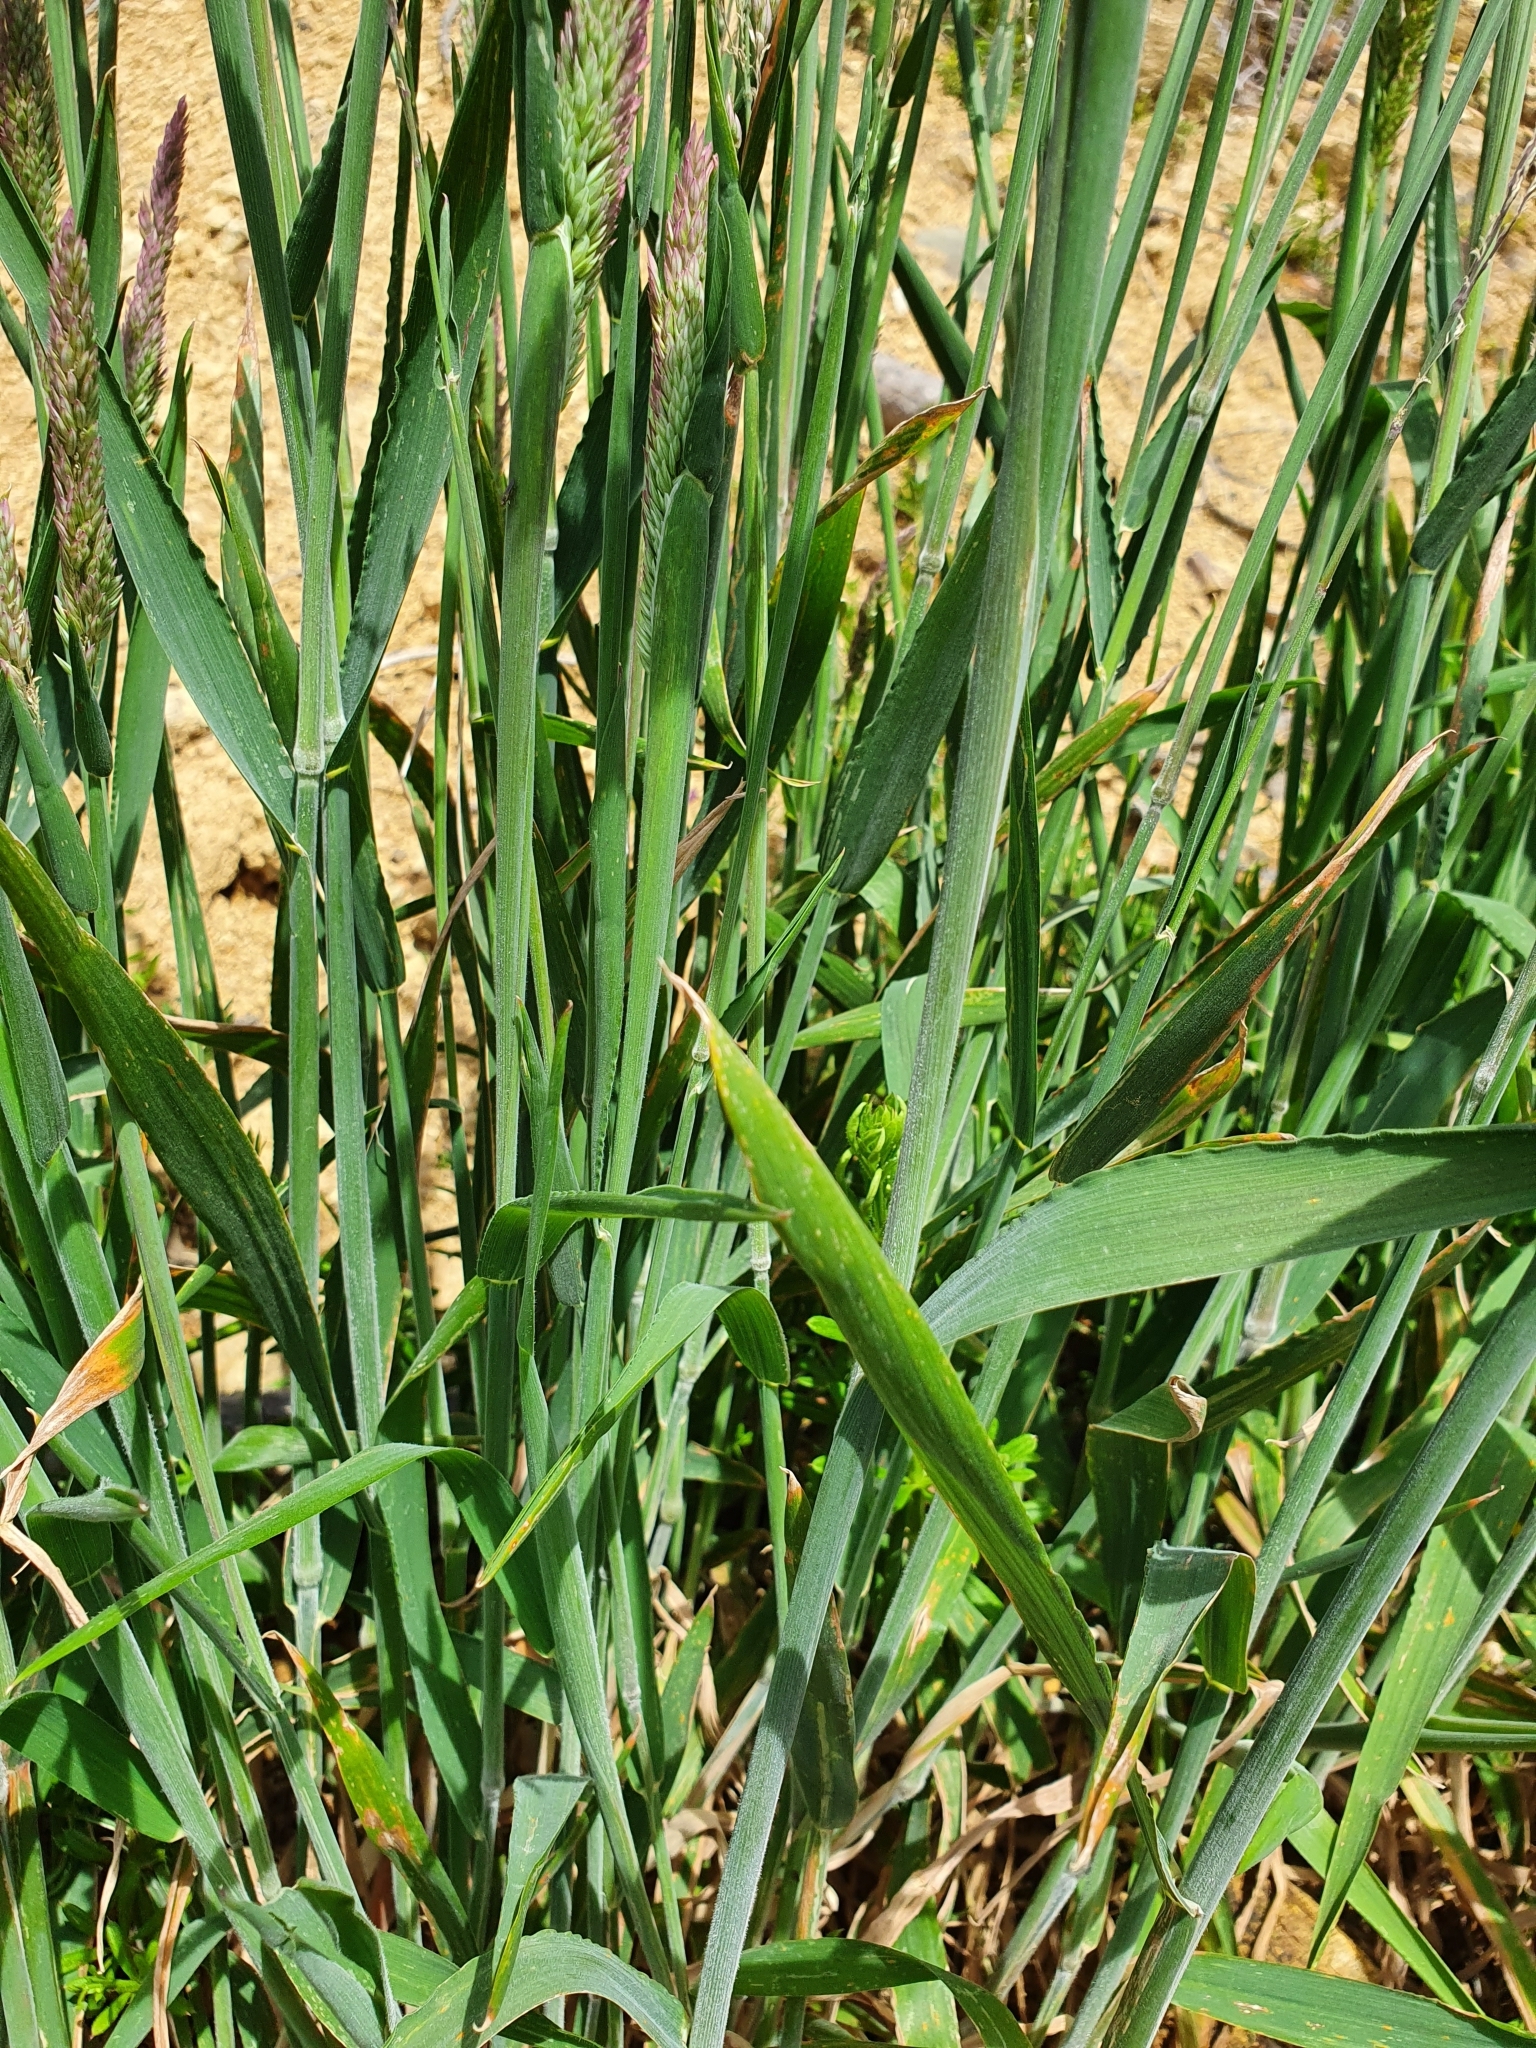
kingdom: Plantae
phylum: Tracheophyta
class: Liliopsida
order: Poales
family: Poaceae
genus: Holcus
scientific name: Holcus lanatus
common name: Yorkshire-fog
